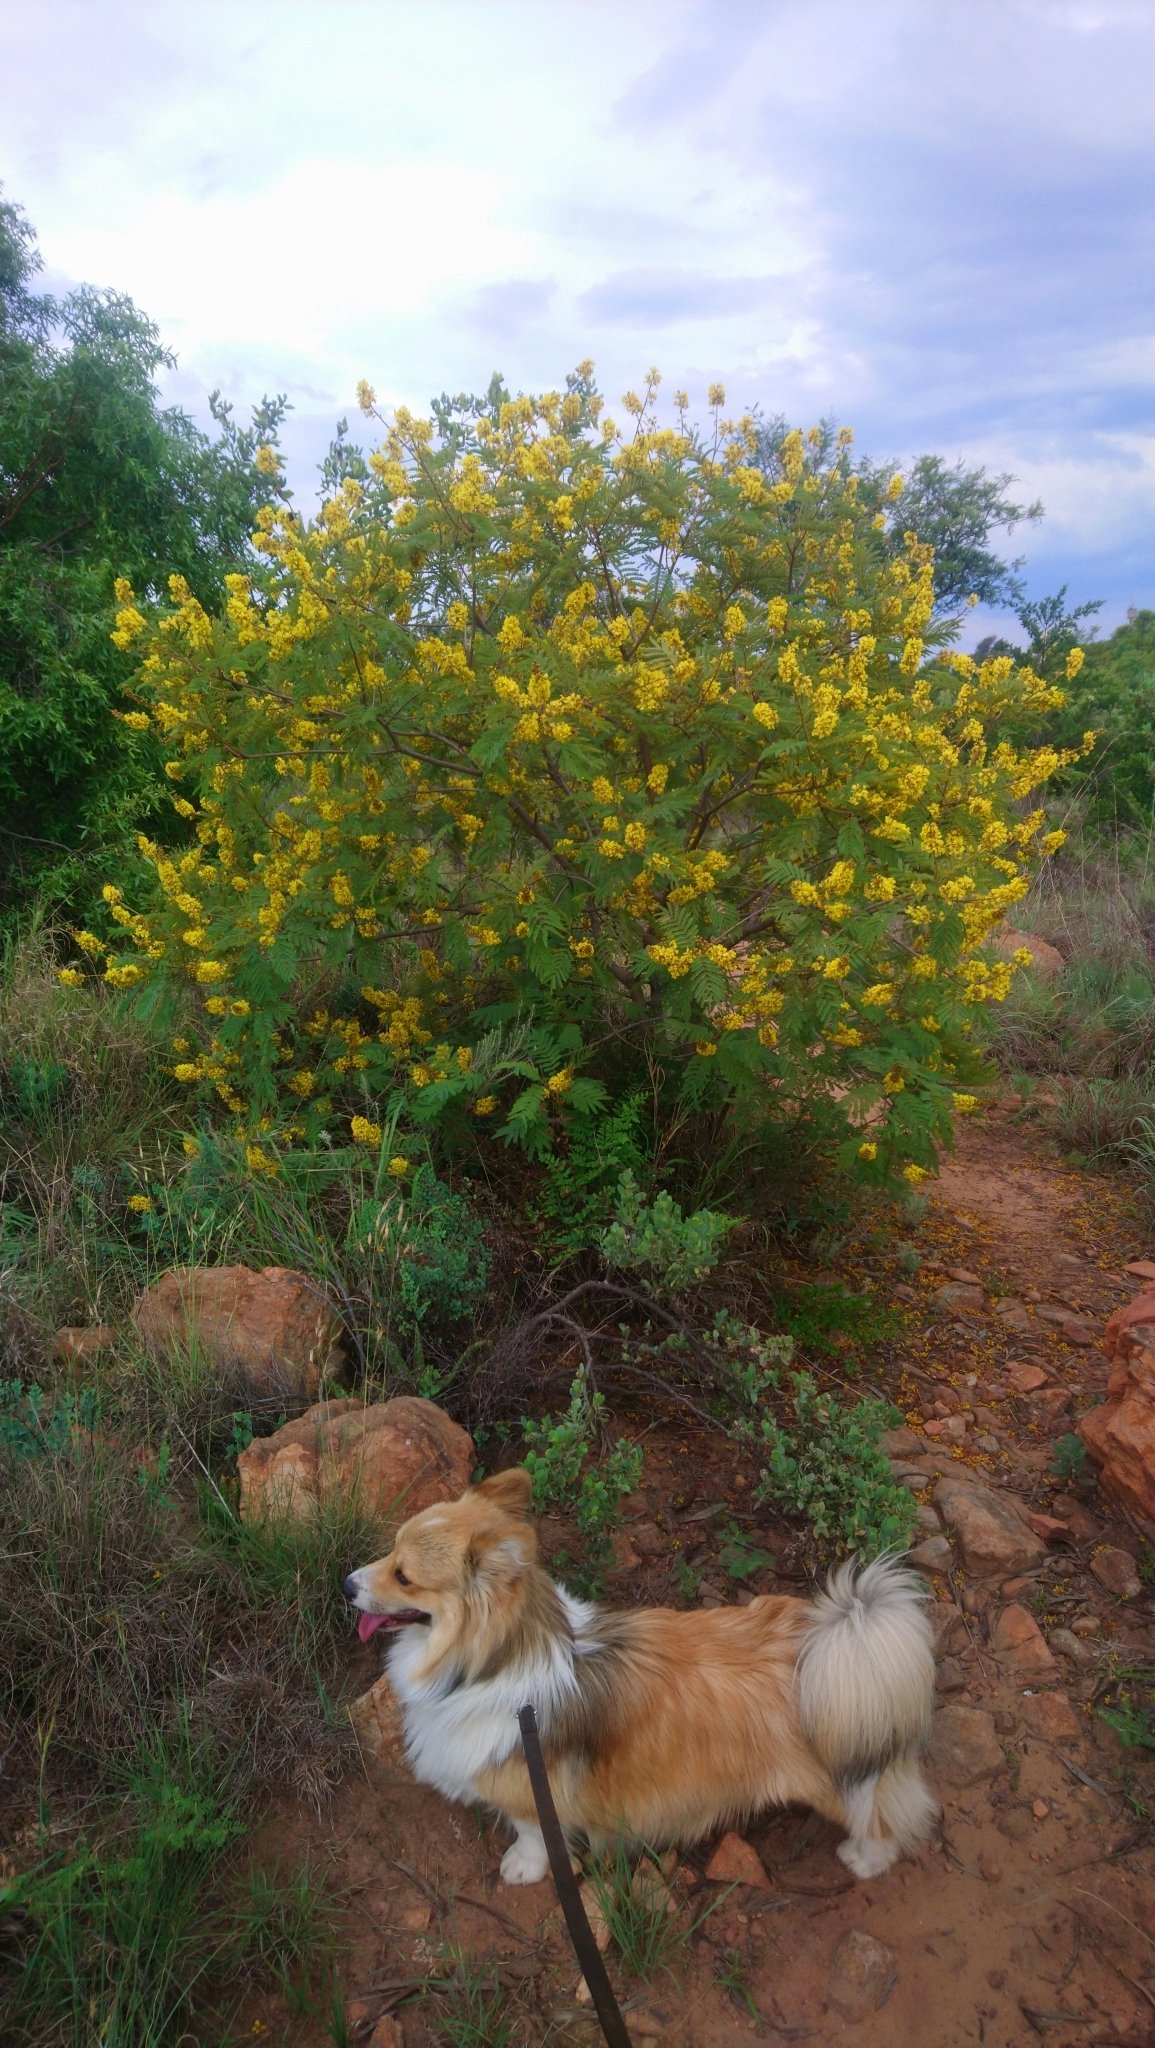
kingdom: Plantae
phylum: Tracheophyta
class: Magnoliopsida
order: Fabales
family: Fabaceae
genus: Peltophorum
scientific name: Peltophorum africanum
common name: African black wattle
